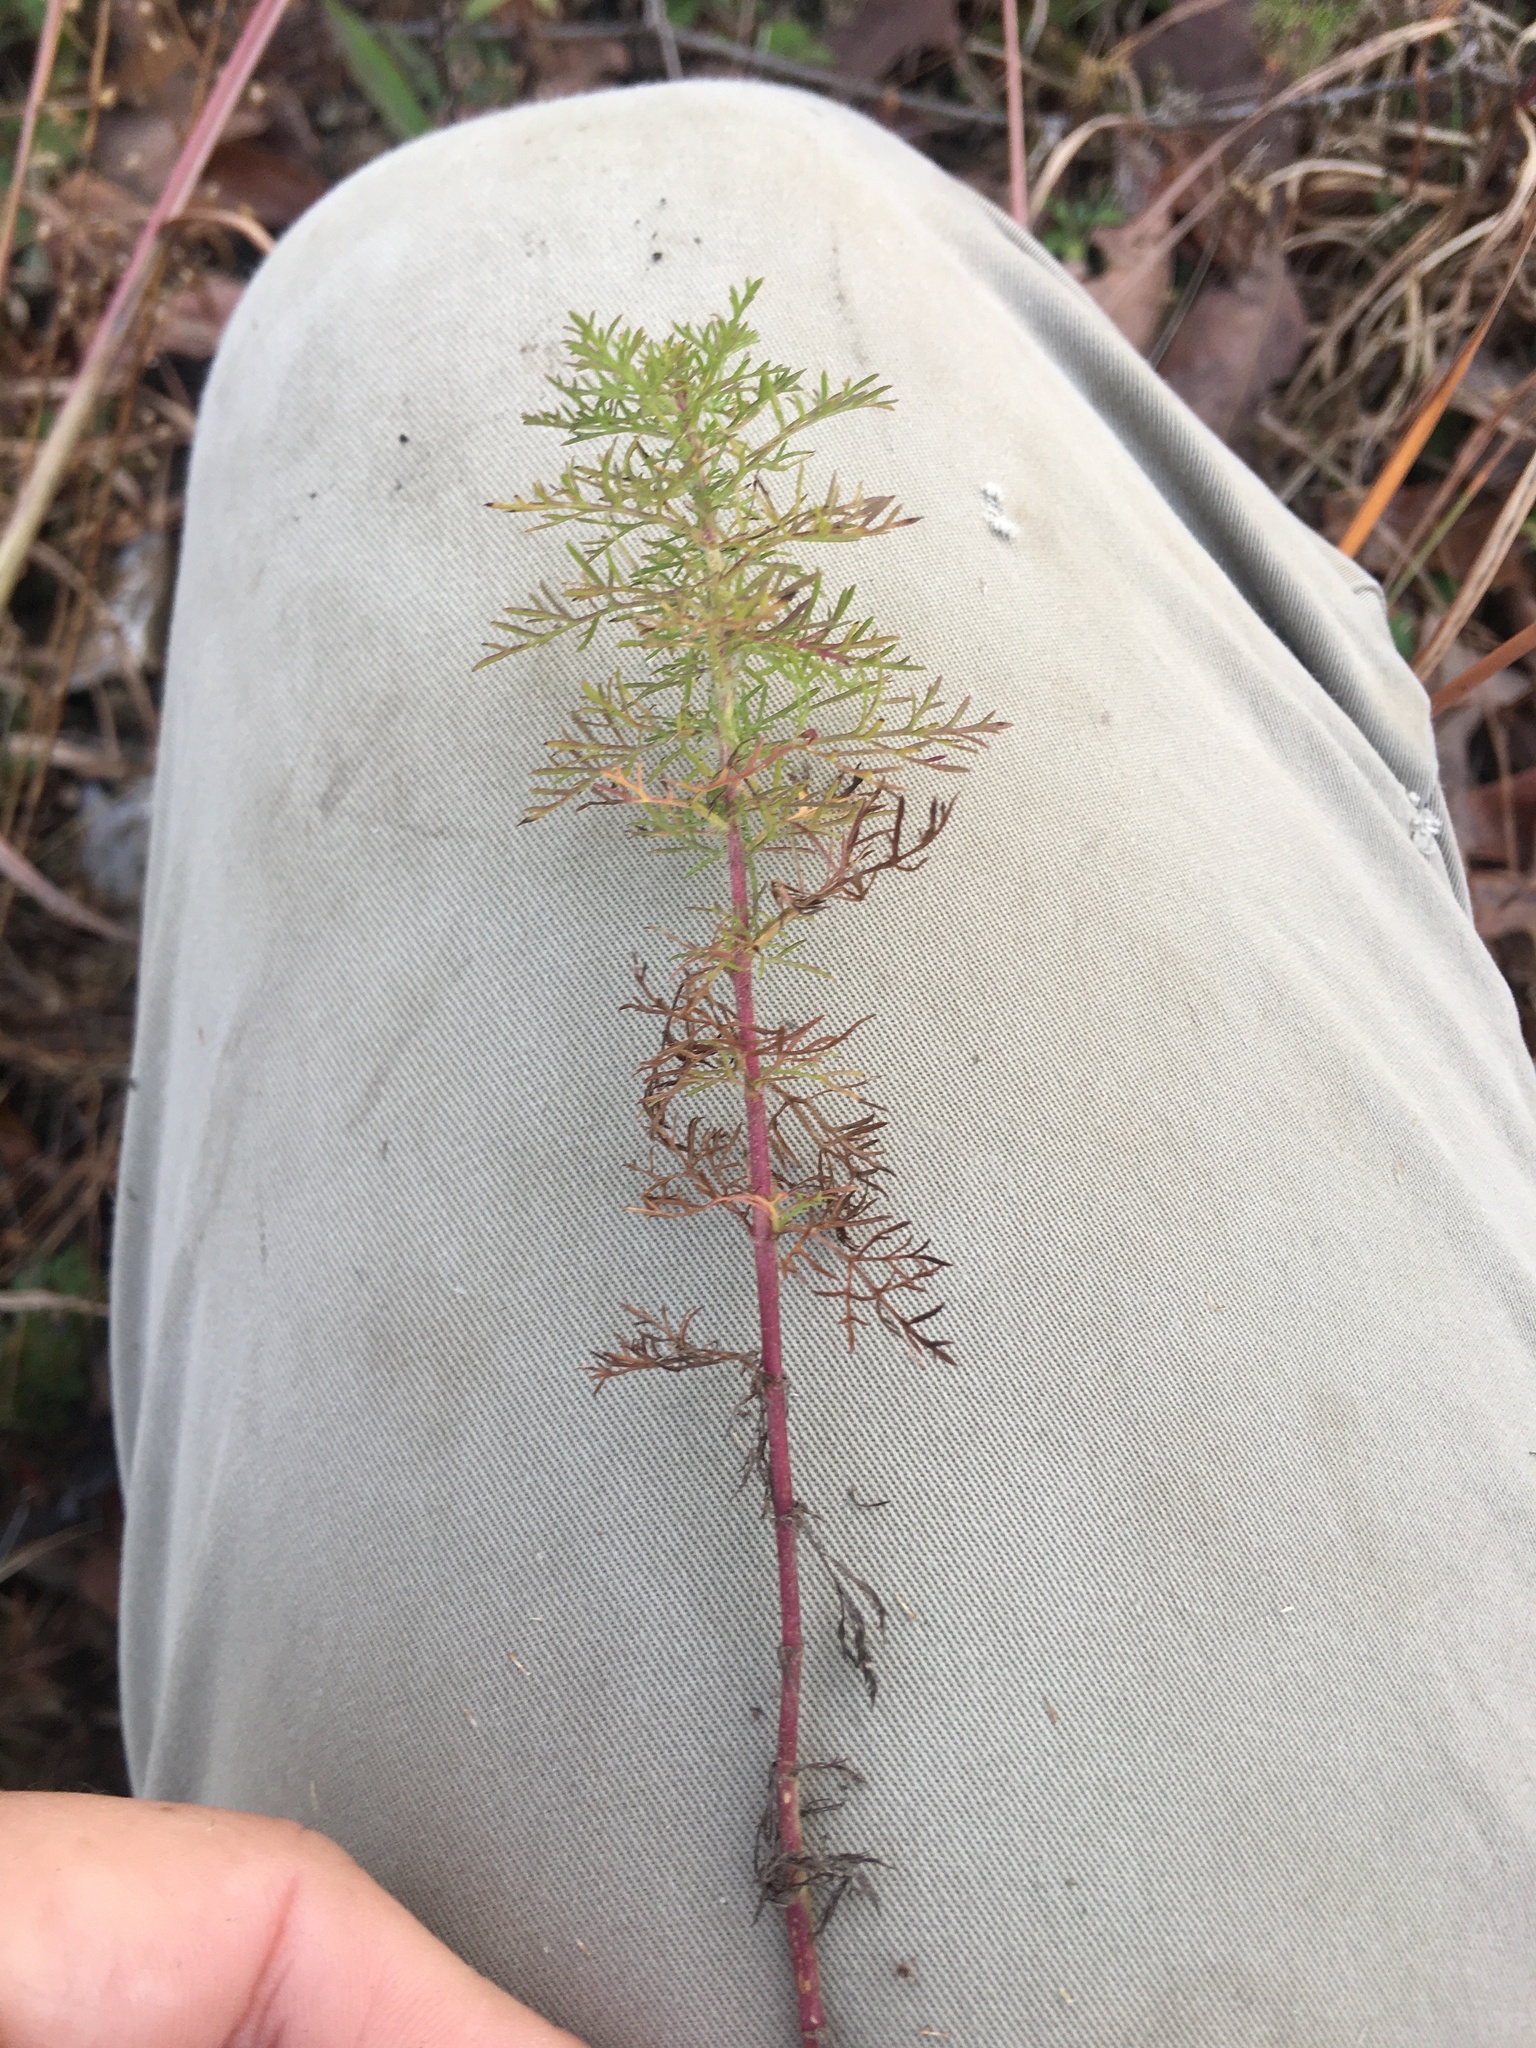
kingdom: Plantae
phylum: Tracheophyta
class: Magnoliopsida
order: Asterales
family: Asteraceae
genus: Eupatorium
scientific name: Eupatorium capillifolium
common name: Dog-fennel
